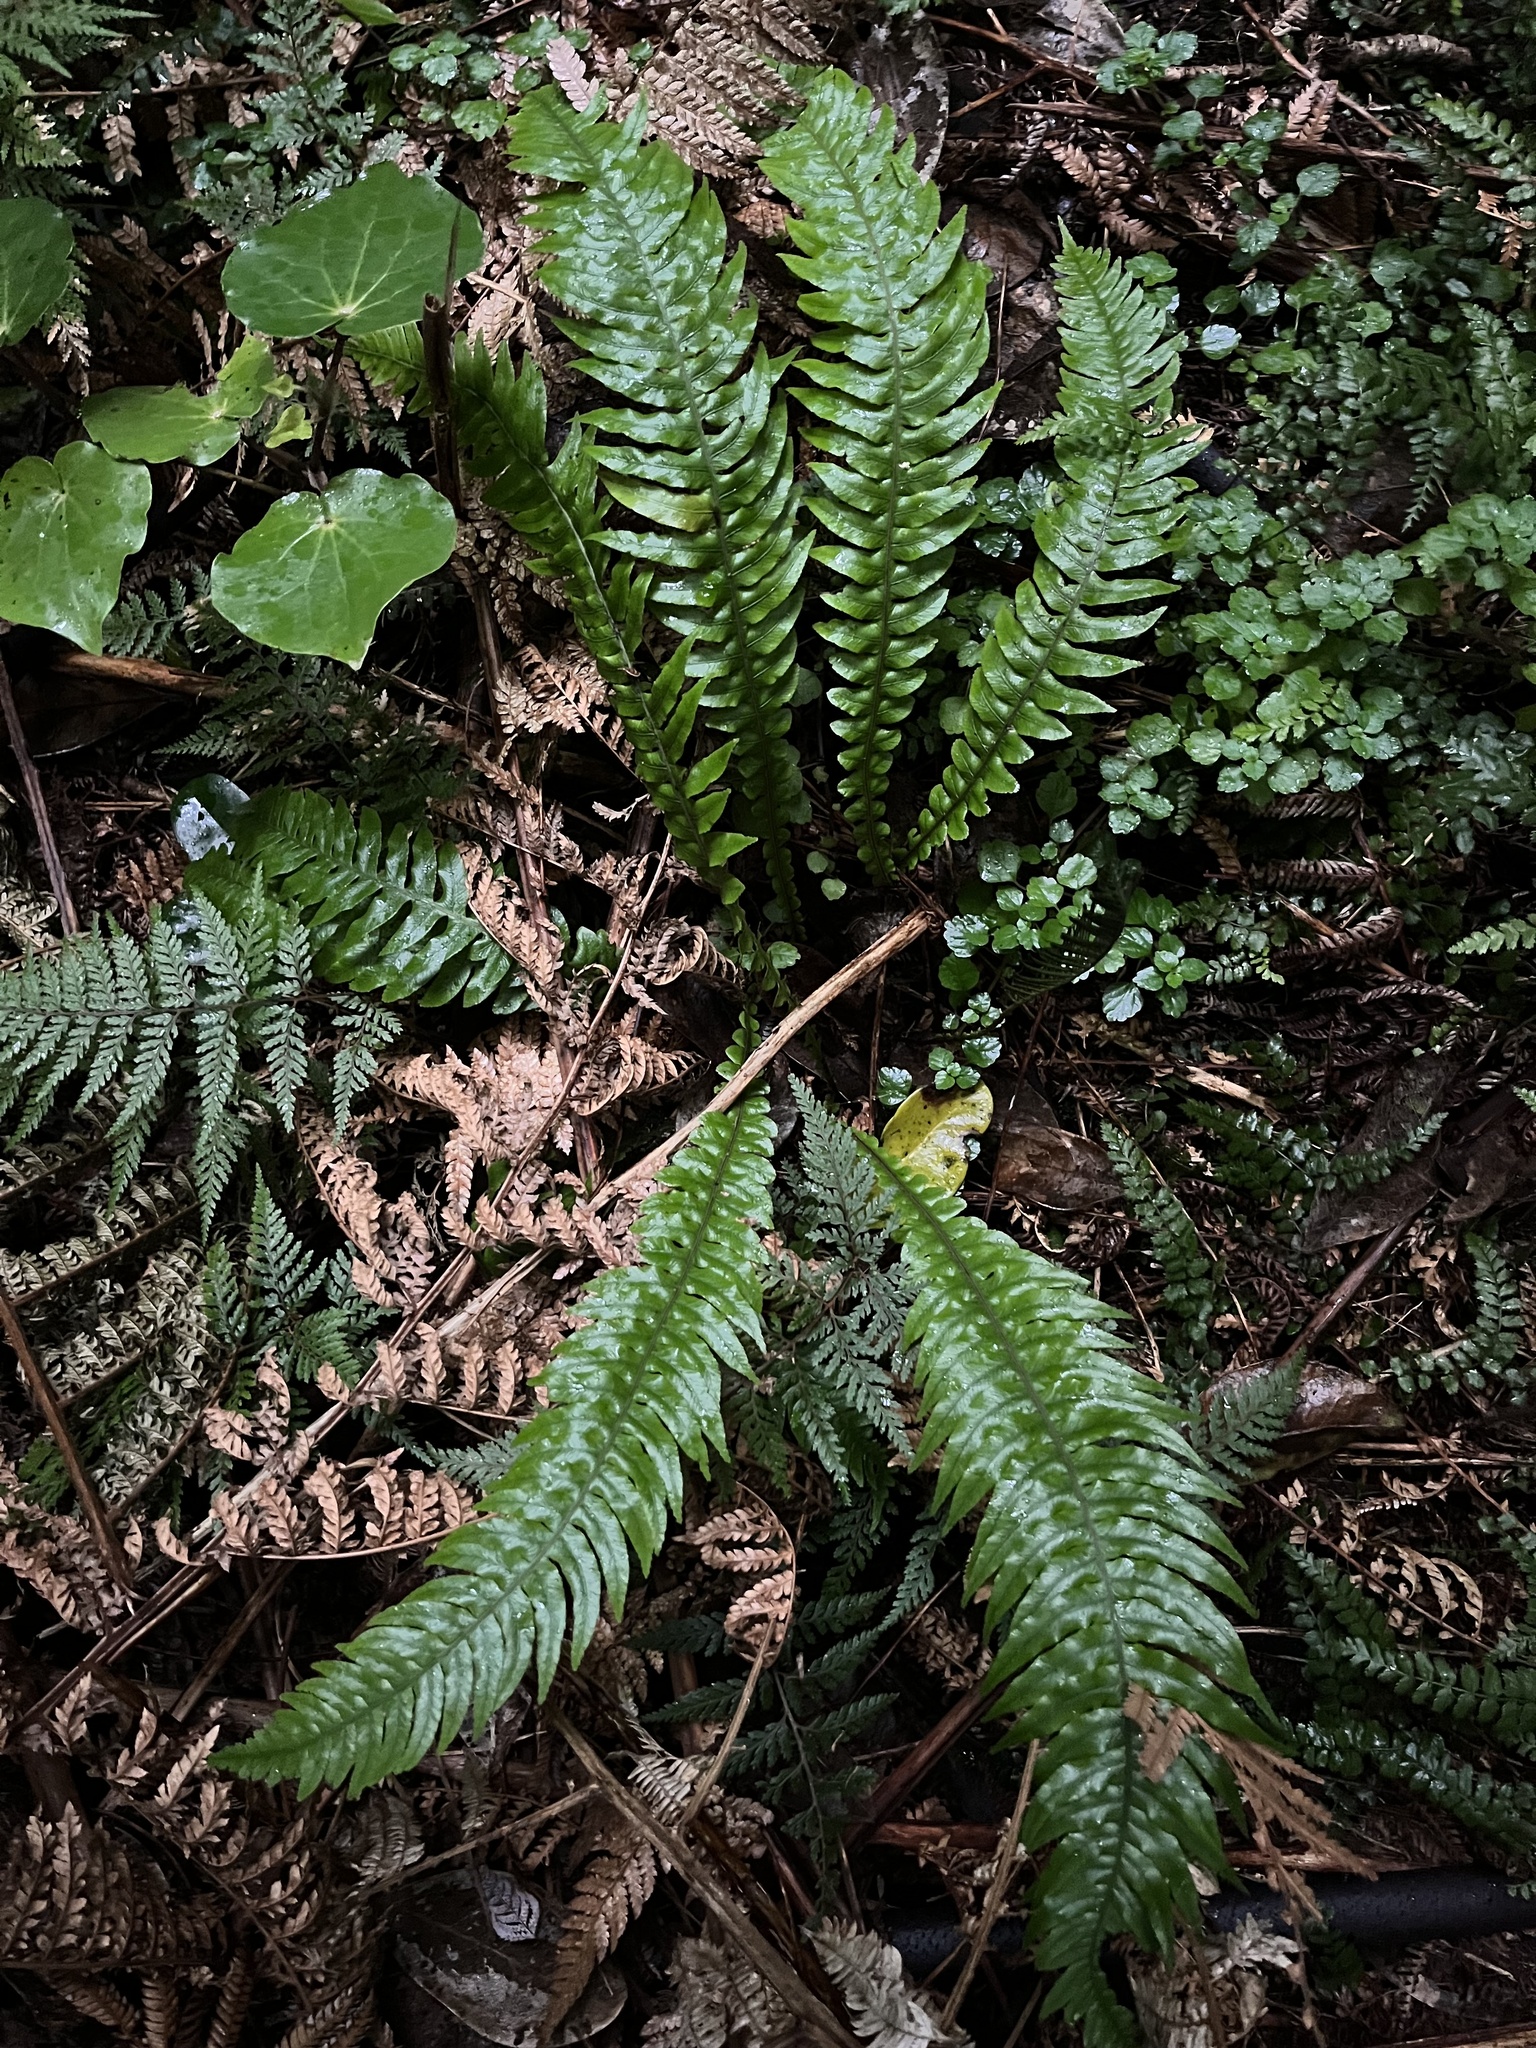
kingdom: Plantae
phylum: Tracheophyta
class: Polypodiopsida
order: Polypodiales
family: Blechnaceae
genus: Austroblechnum
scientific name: Austroblechnum lanceolatum
